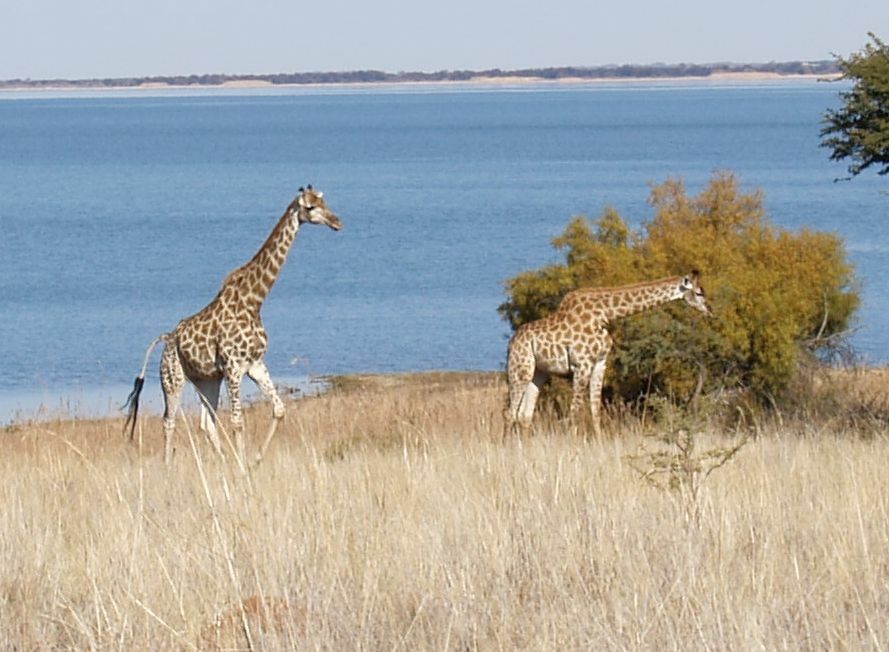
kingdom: Animalia
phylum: Chordata
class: Mammalia
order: Artiodactyla
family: Giraffidae
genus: Giraffa
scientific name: Giraffa giraffa
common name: Southern giraffe
